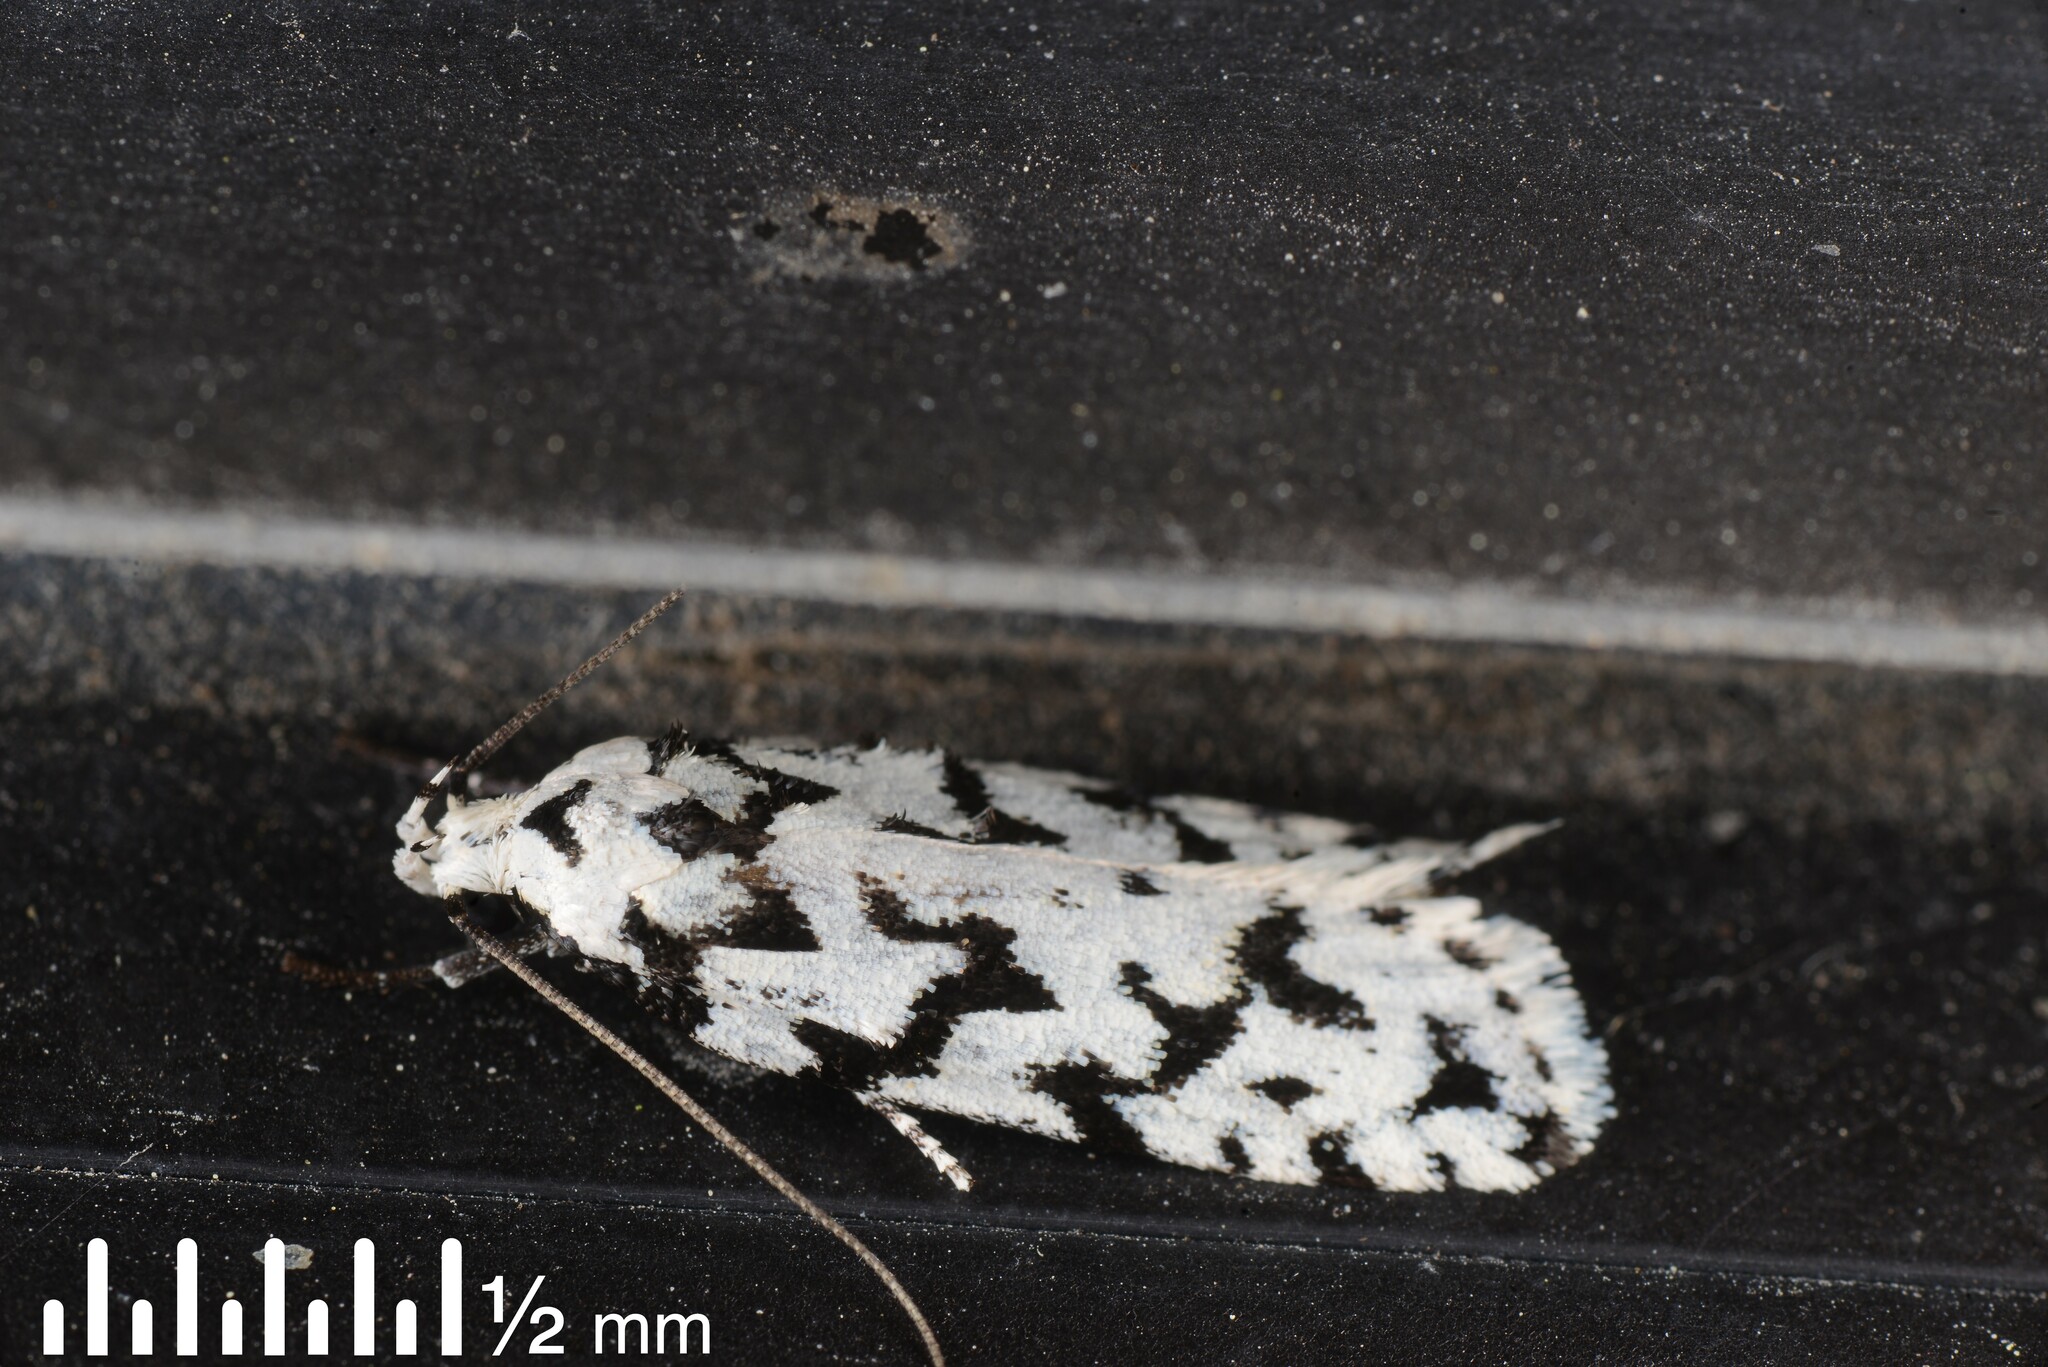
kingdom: Animalia
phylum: Arthropoda
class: Insecta
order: Lepidoptera
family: Oecophoridae
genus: Izatha
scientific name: Izatha katadiktya
